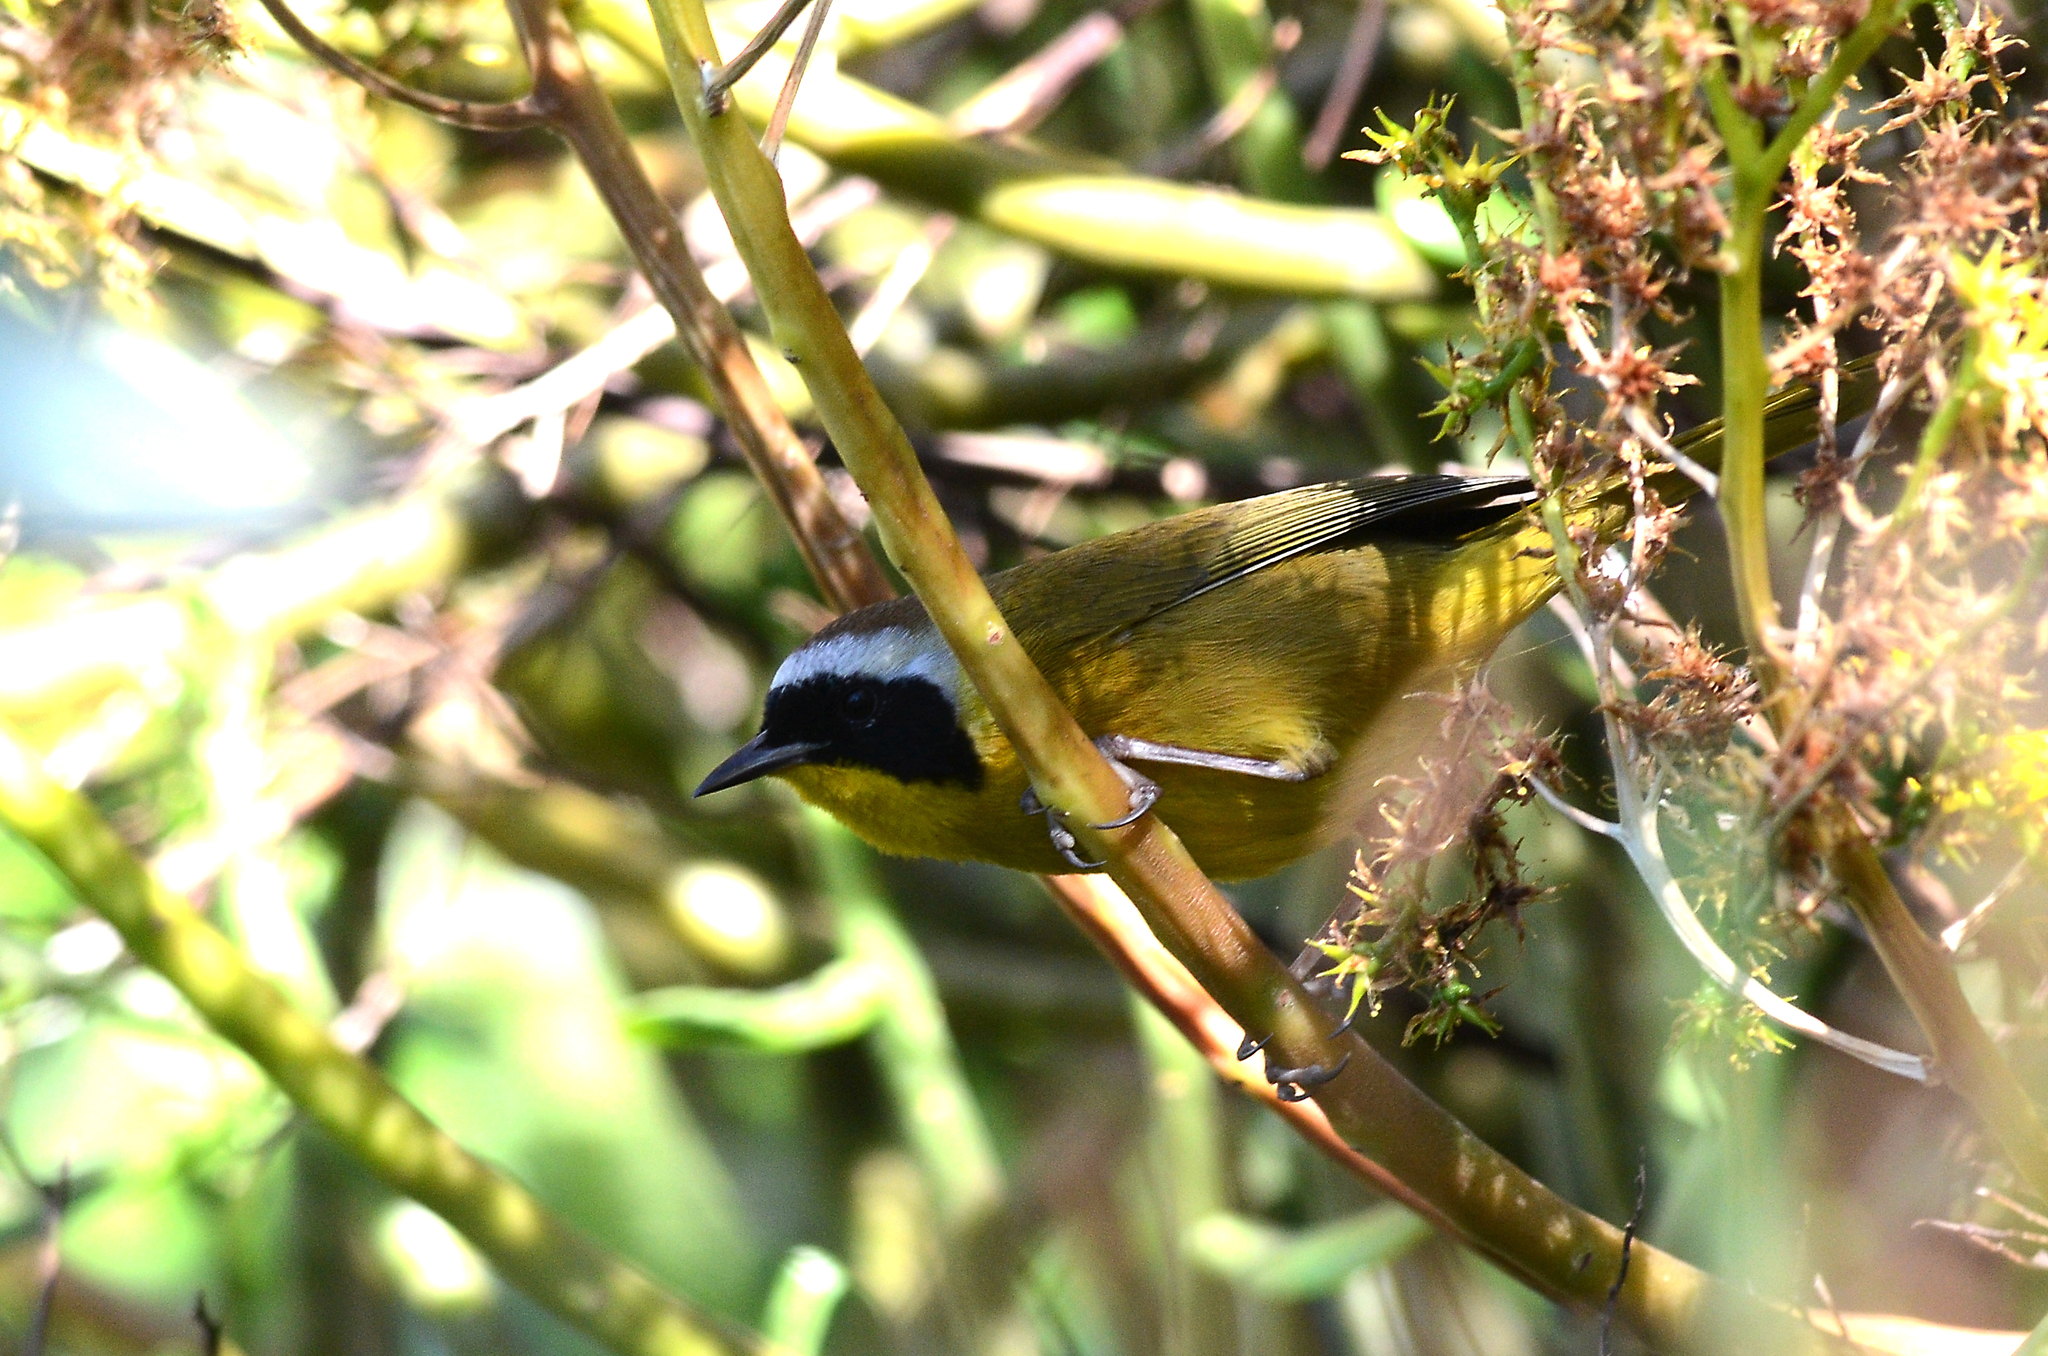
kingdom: Animalia
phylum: Chordata
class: Aves
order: Passeriformes
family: Parulidae
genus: Geothlypis
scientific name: Geothlypis trichas
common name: Common yellowthroat
